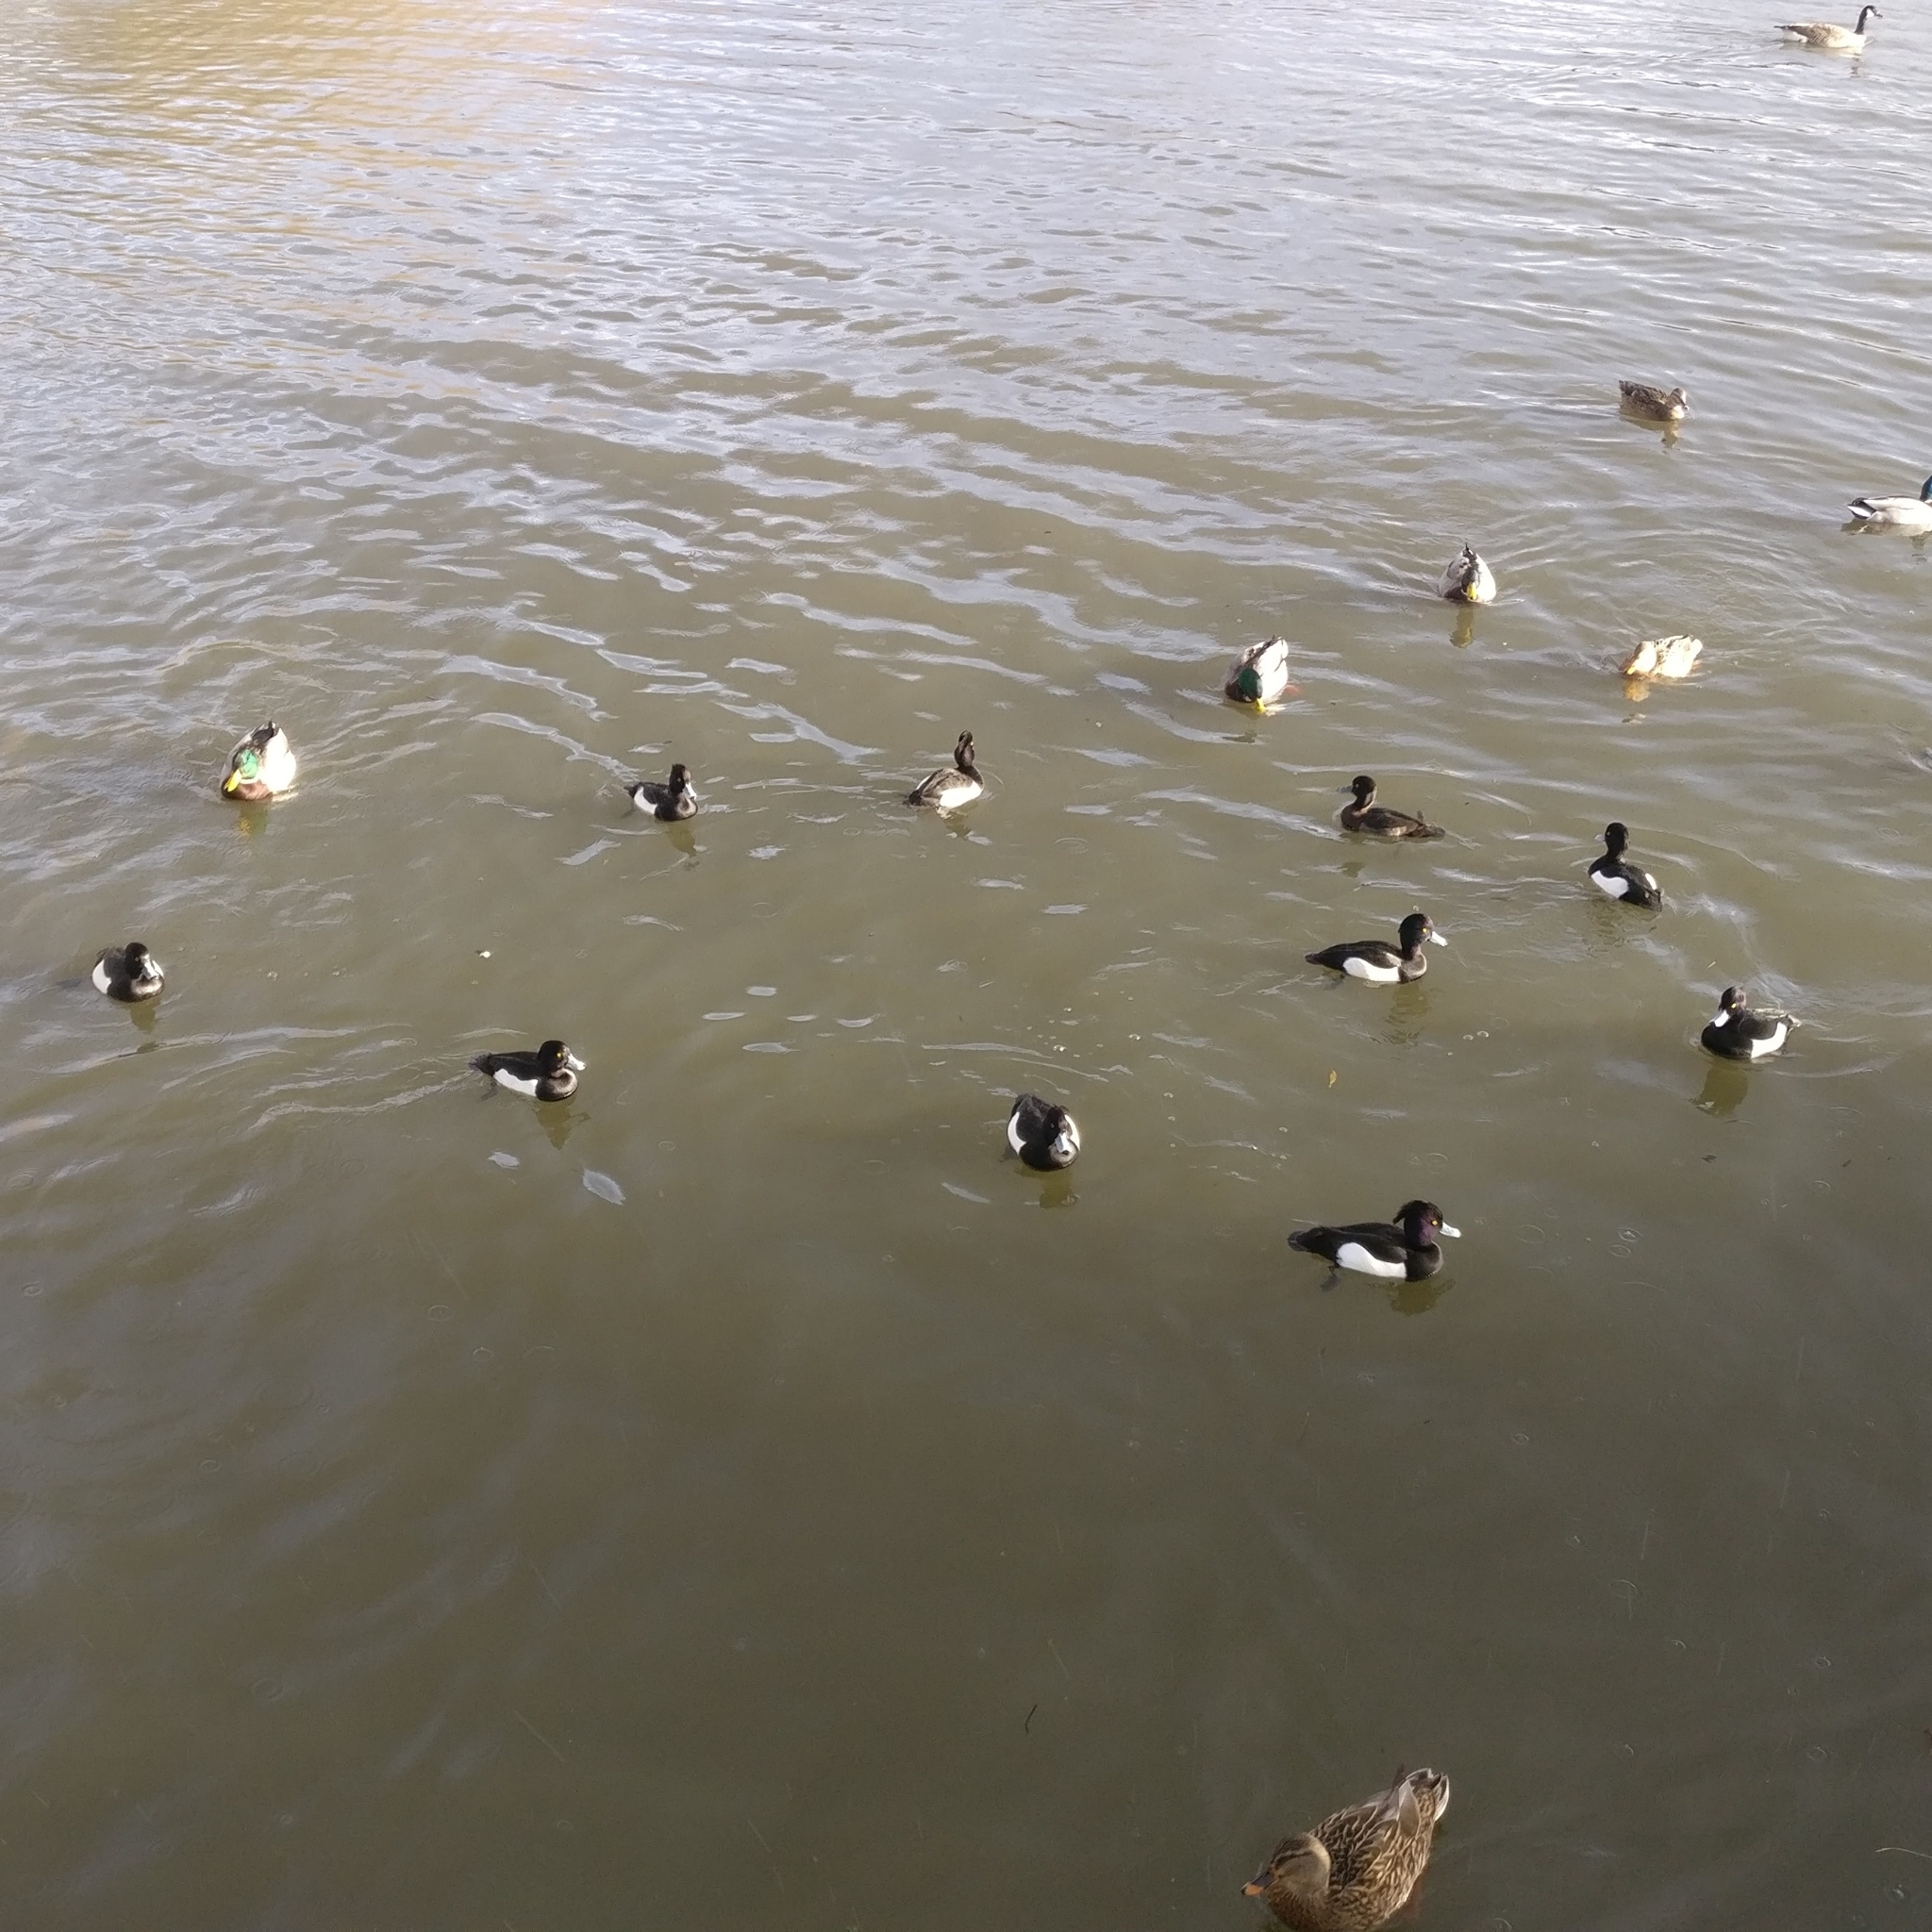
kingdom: Animalia
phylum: Chordata
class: Aves
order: Anseriformes
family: Anatidae
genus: Aythya
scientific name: Aythya fuligula
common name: Tufted duck
